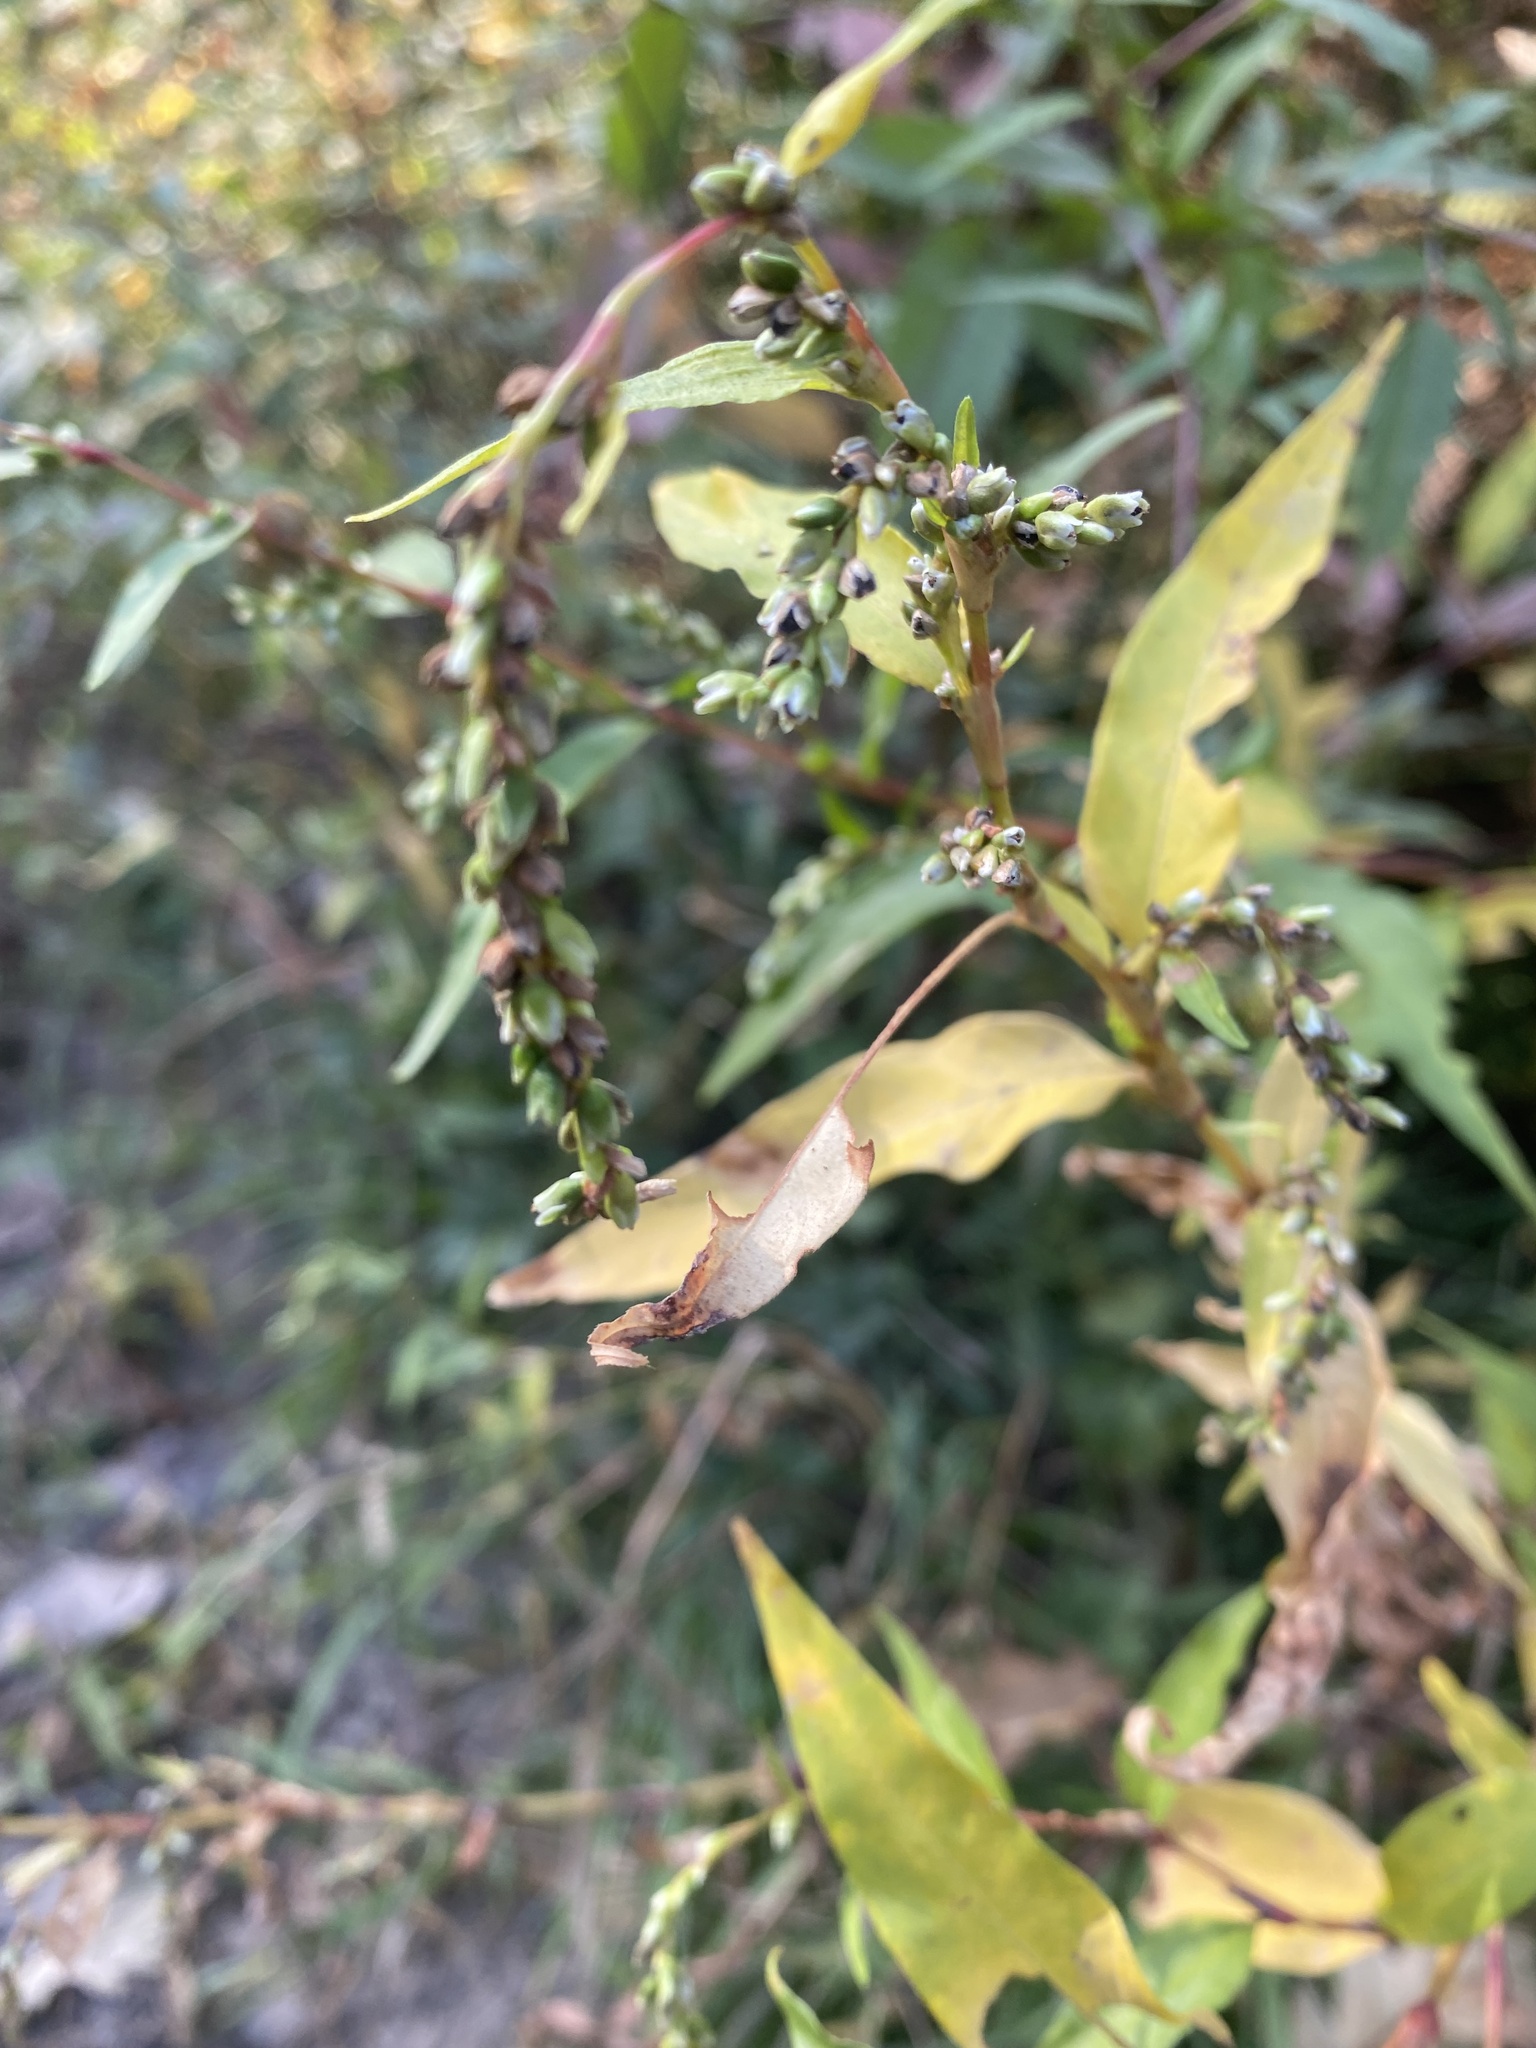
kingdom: Plantae
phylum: Tracheophyta
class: Magnoliopsida
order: Caryophyllales
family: Polygonaceae
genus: Persicaria
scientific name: Persicaria hydropiper
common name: Water-pepper
